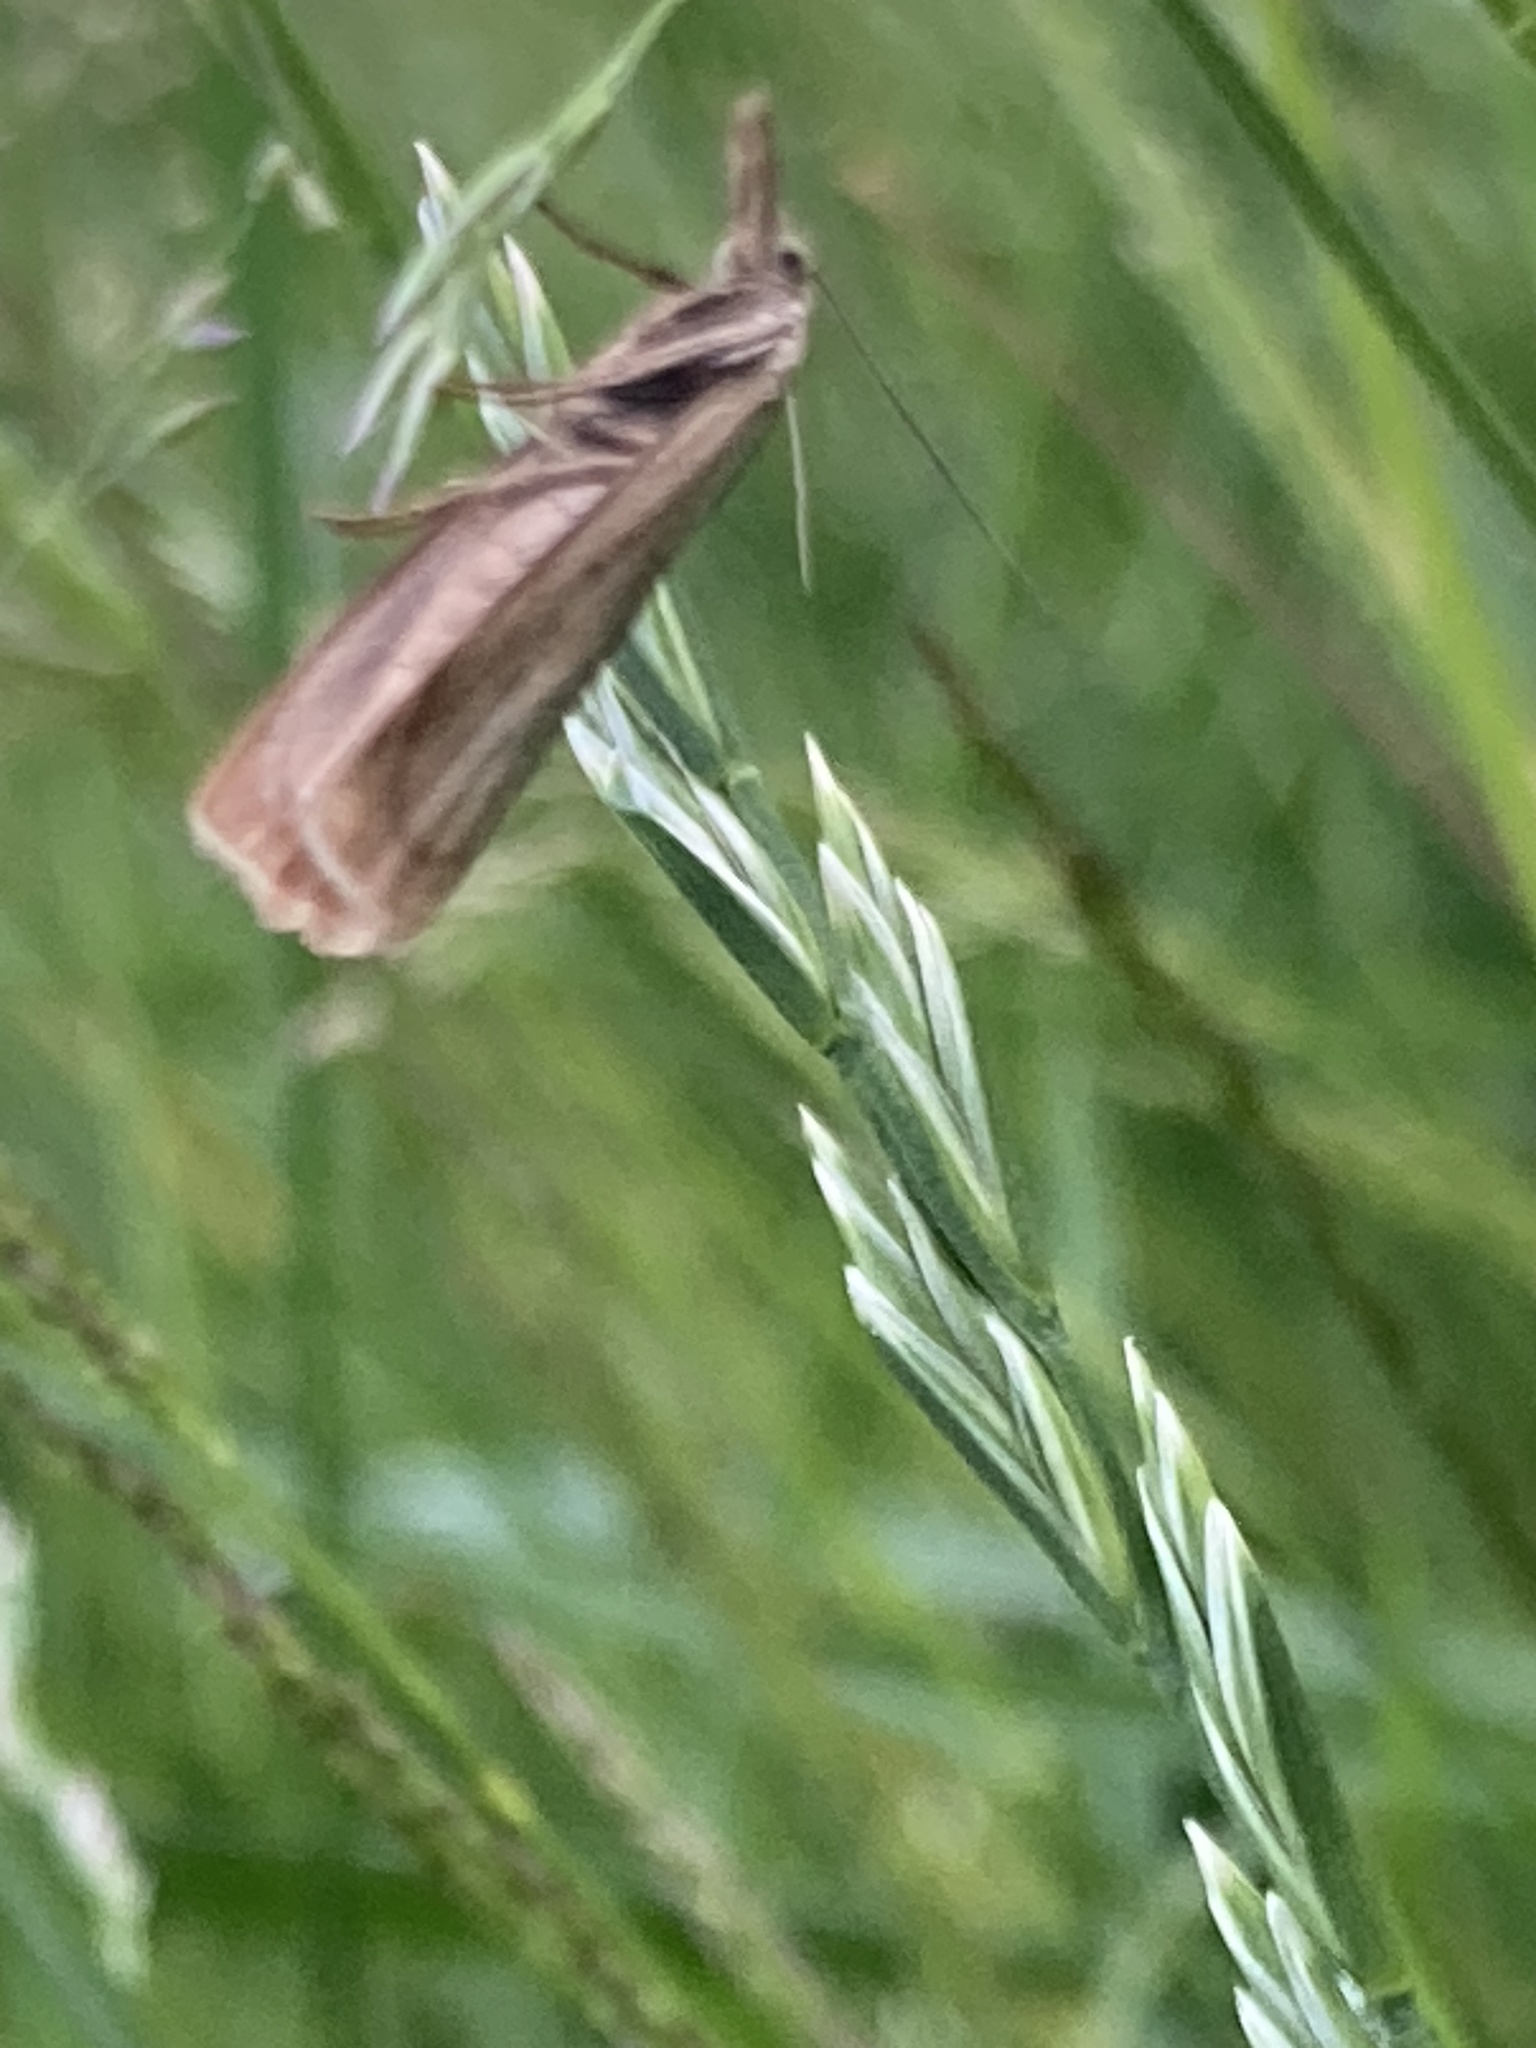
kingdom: Animalia
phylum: Arthropoda
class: Insecta
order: Lepidoptera
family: Crambidae
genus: Chrysoteuchia
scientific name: Chrysoteuchia culmella
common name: Garden grass-veneer
